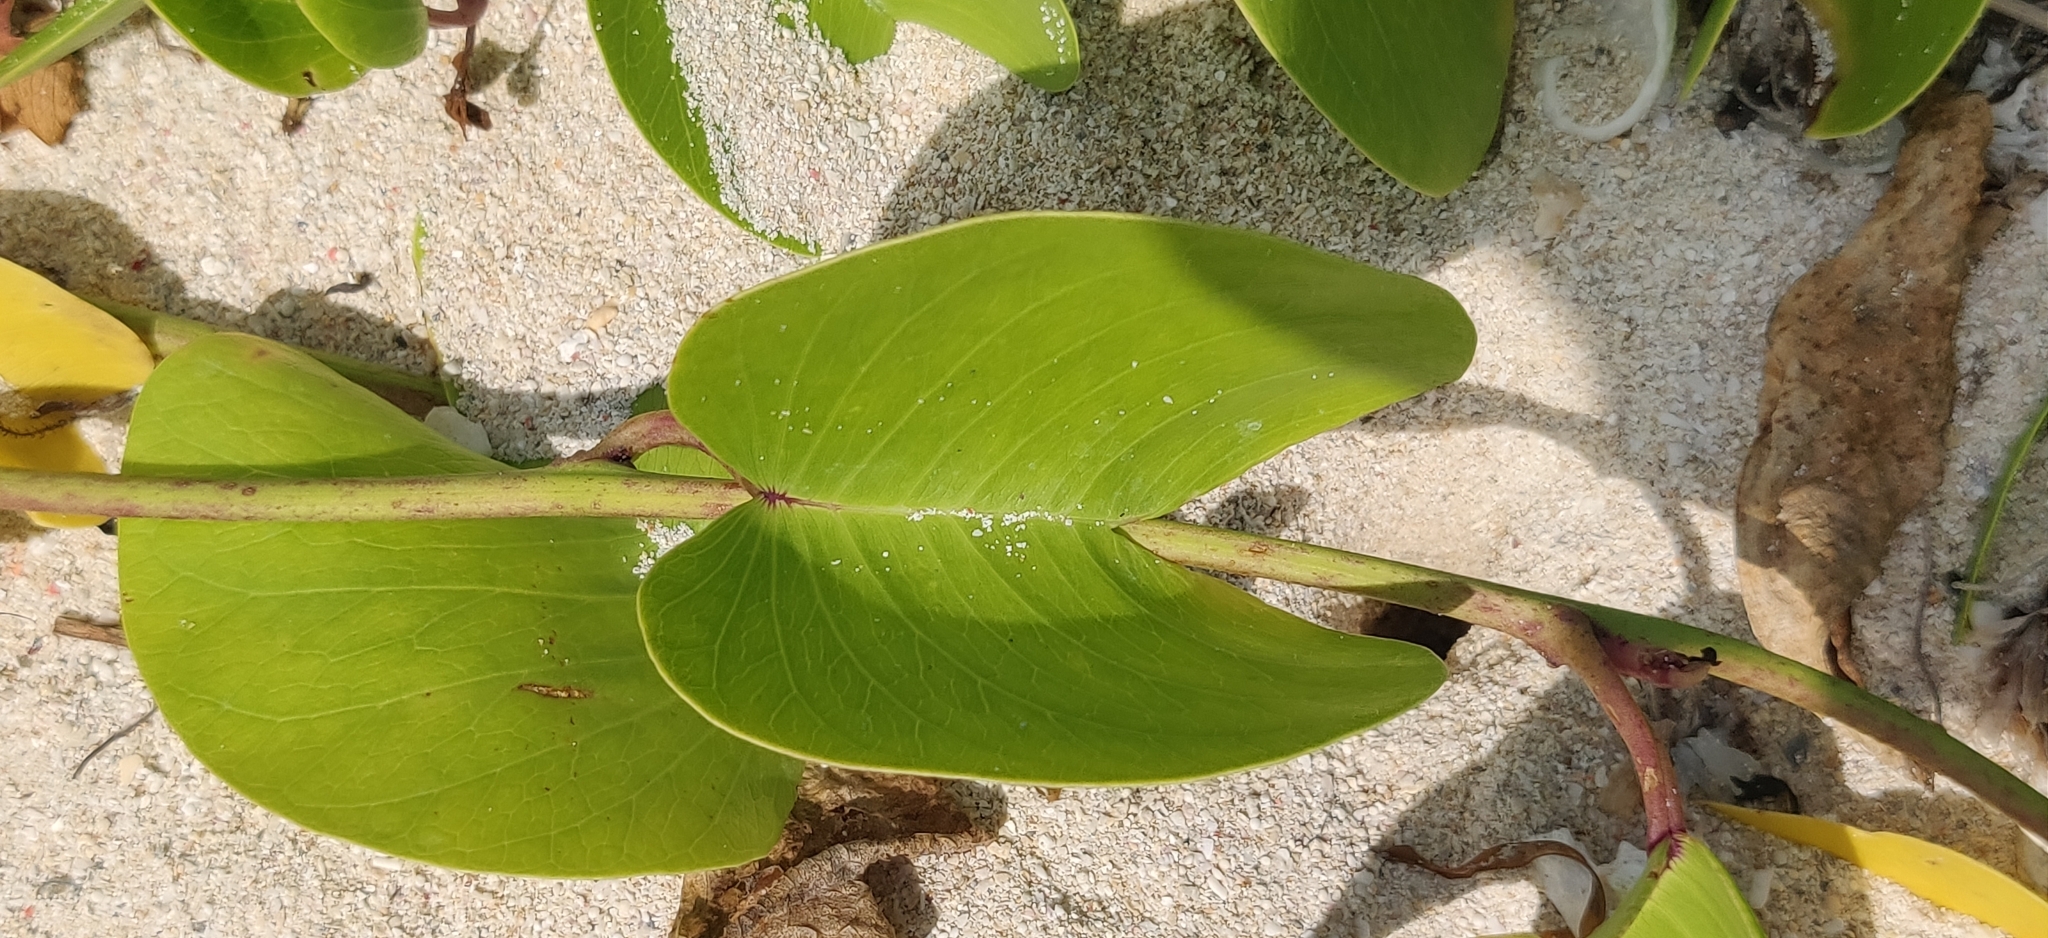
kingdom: Plantae
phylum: Tracheophyta
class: Magnoliopsida
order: Solanales
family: Convolvulaceae
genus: Ipomoea
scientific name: Ipomoea pes-caprae
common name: Beach morning glory
